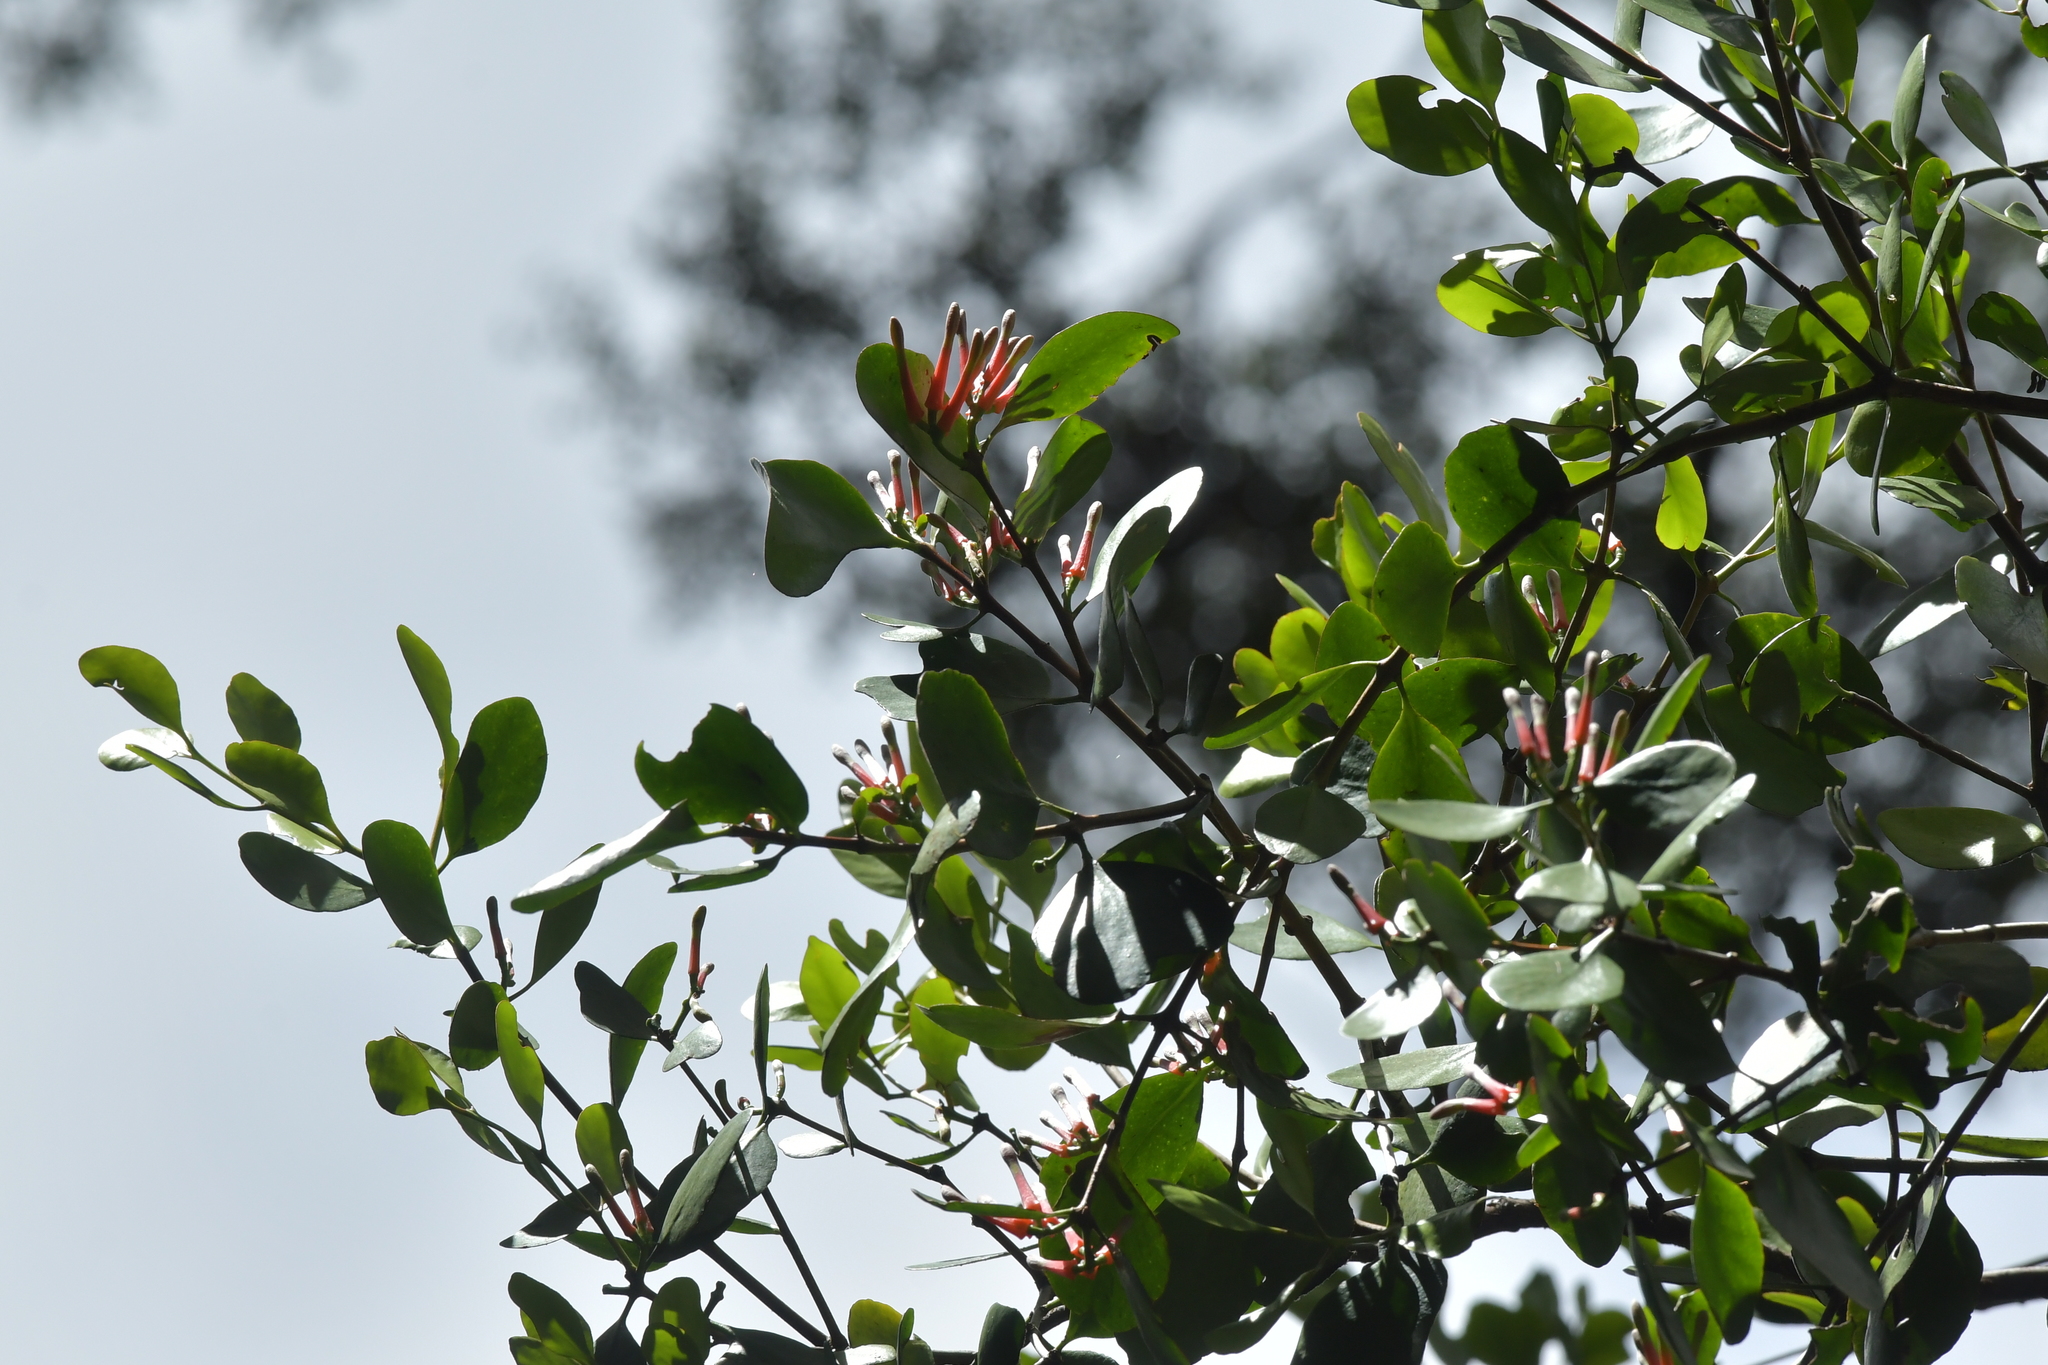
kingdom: Plantae
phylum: Tracheophyta
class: Magnoliopsida
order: Santalales
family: Loranthaceae
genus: Peraxilla
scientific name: Peraxilla colensoi
